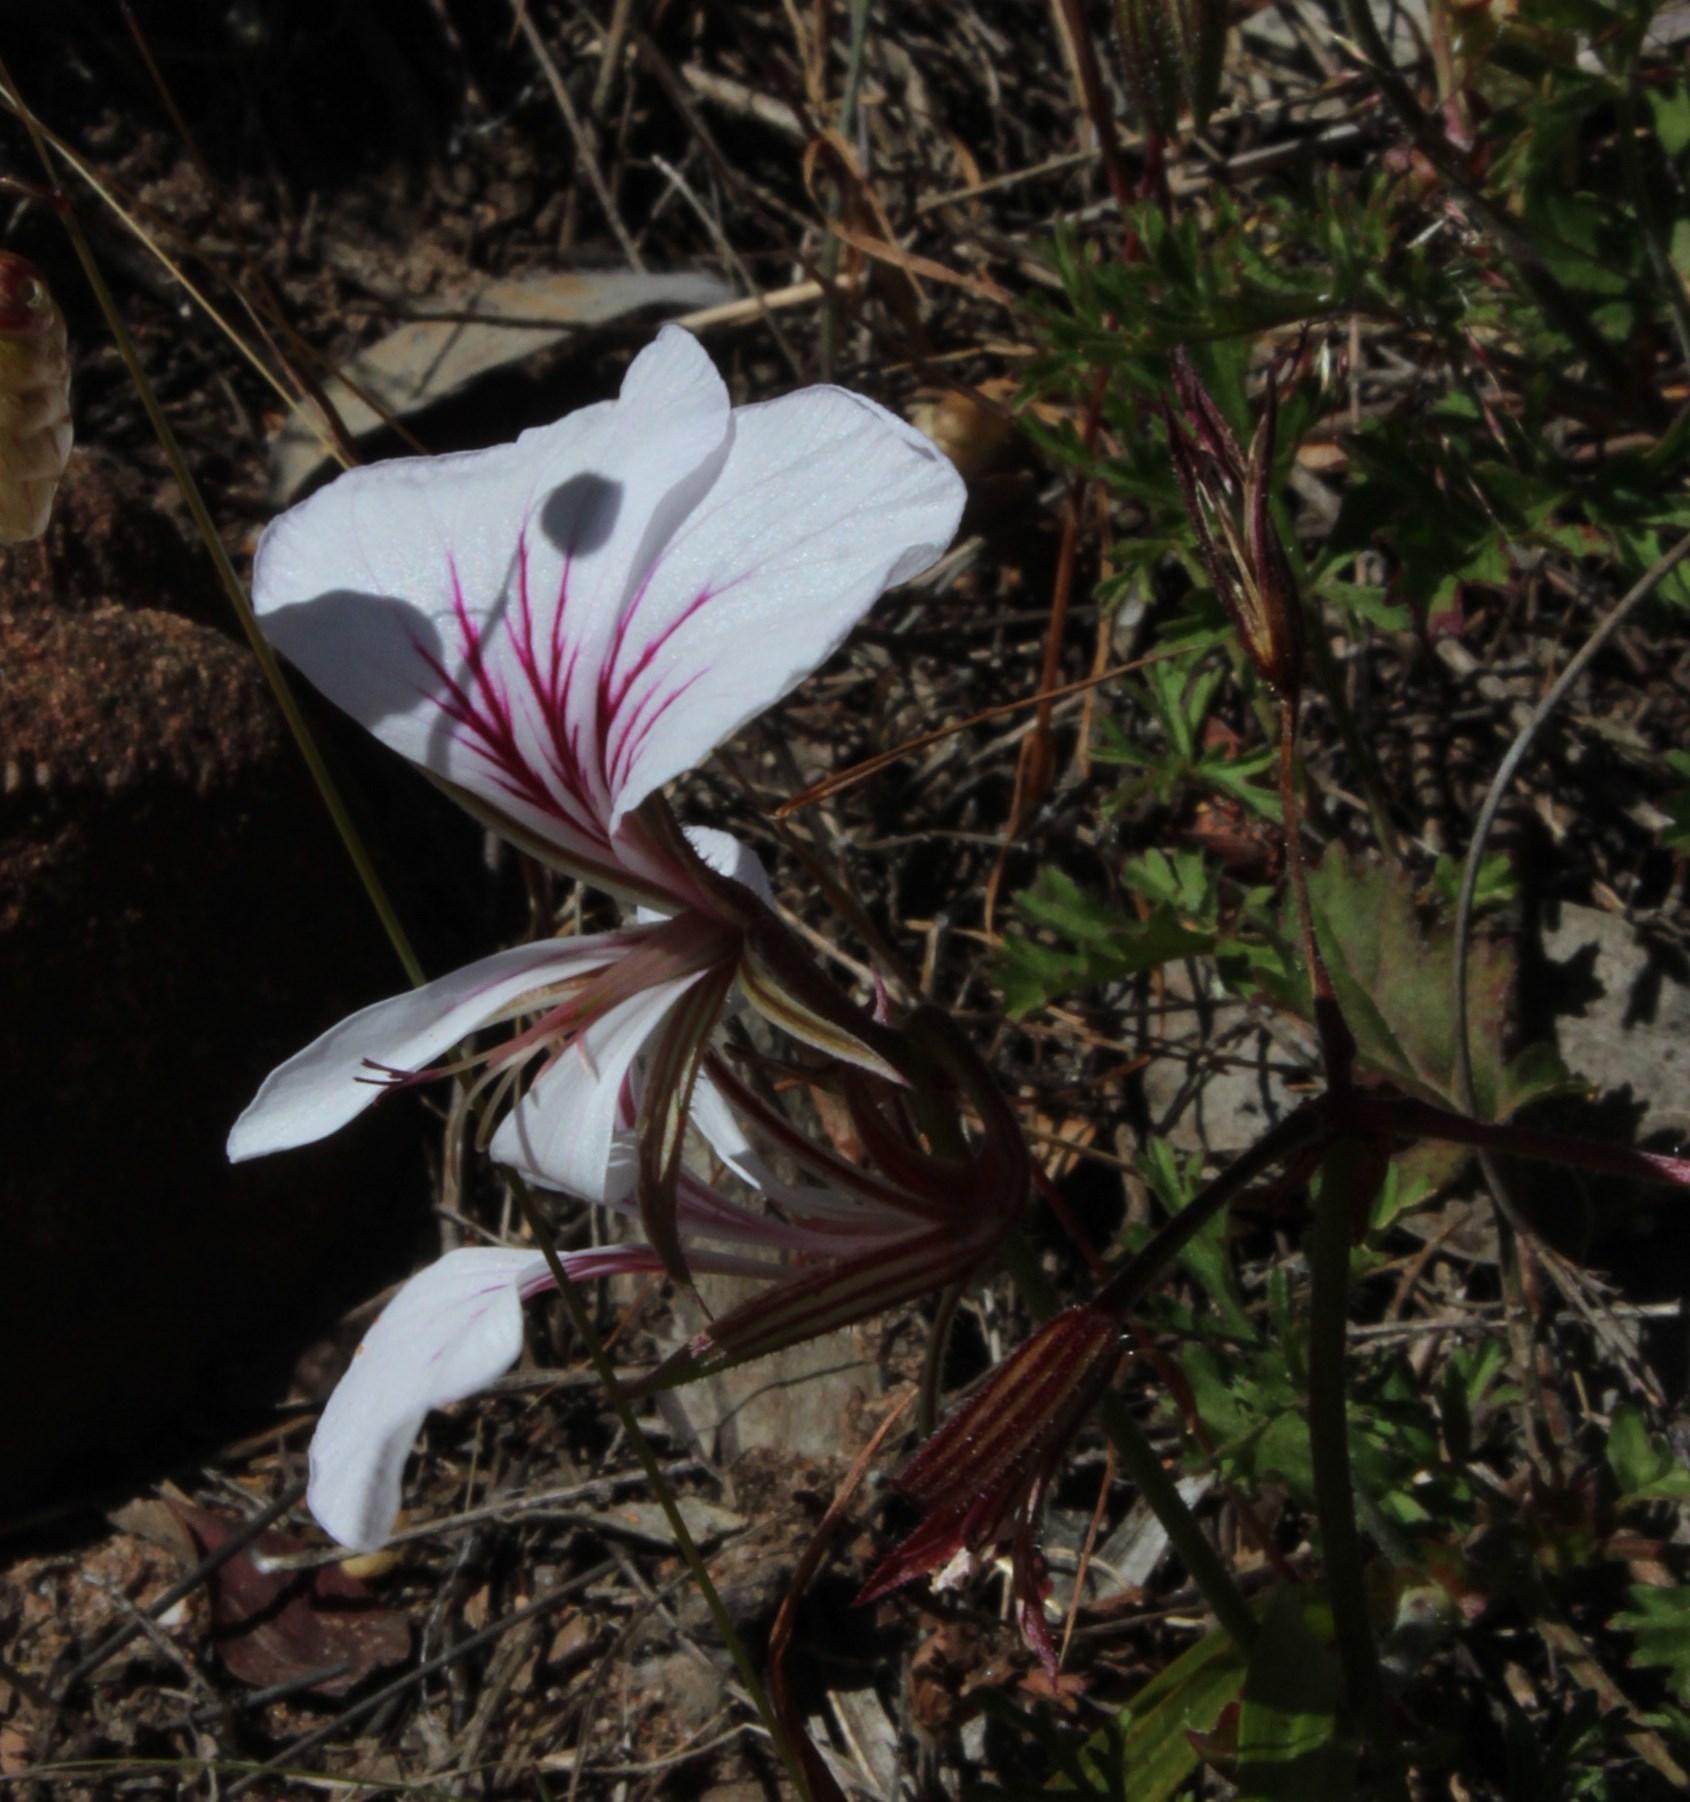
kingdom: Plantae
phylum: Tracheophyta
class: Magnoliopsida
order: Geraniales
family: Geraniaceae
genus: Pelargonium
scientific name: Pelargonium myrrhifolium
